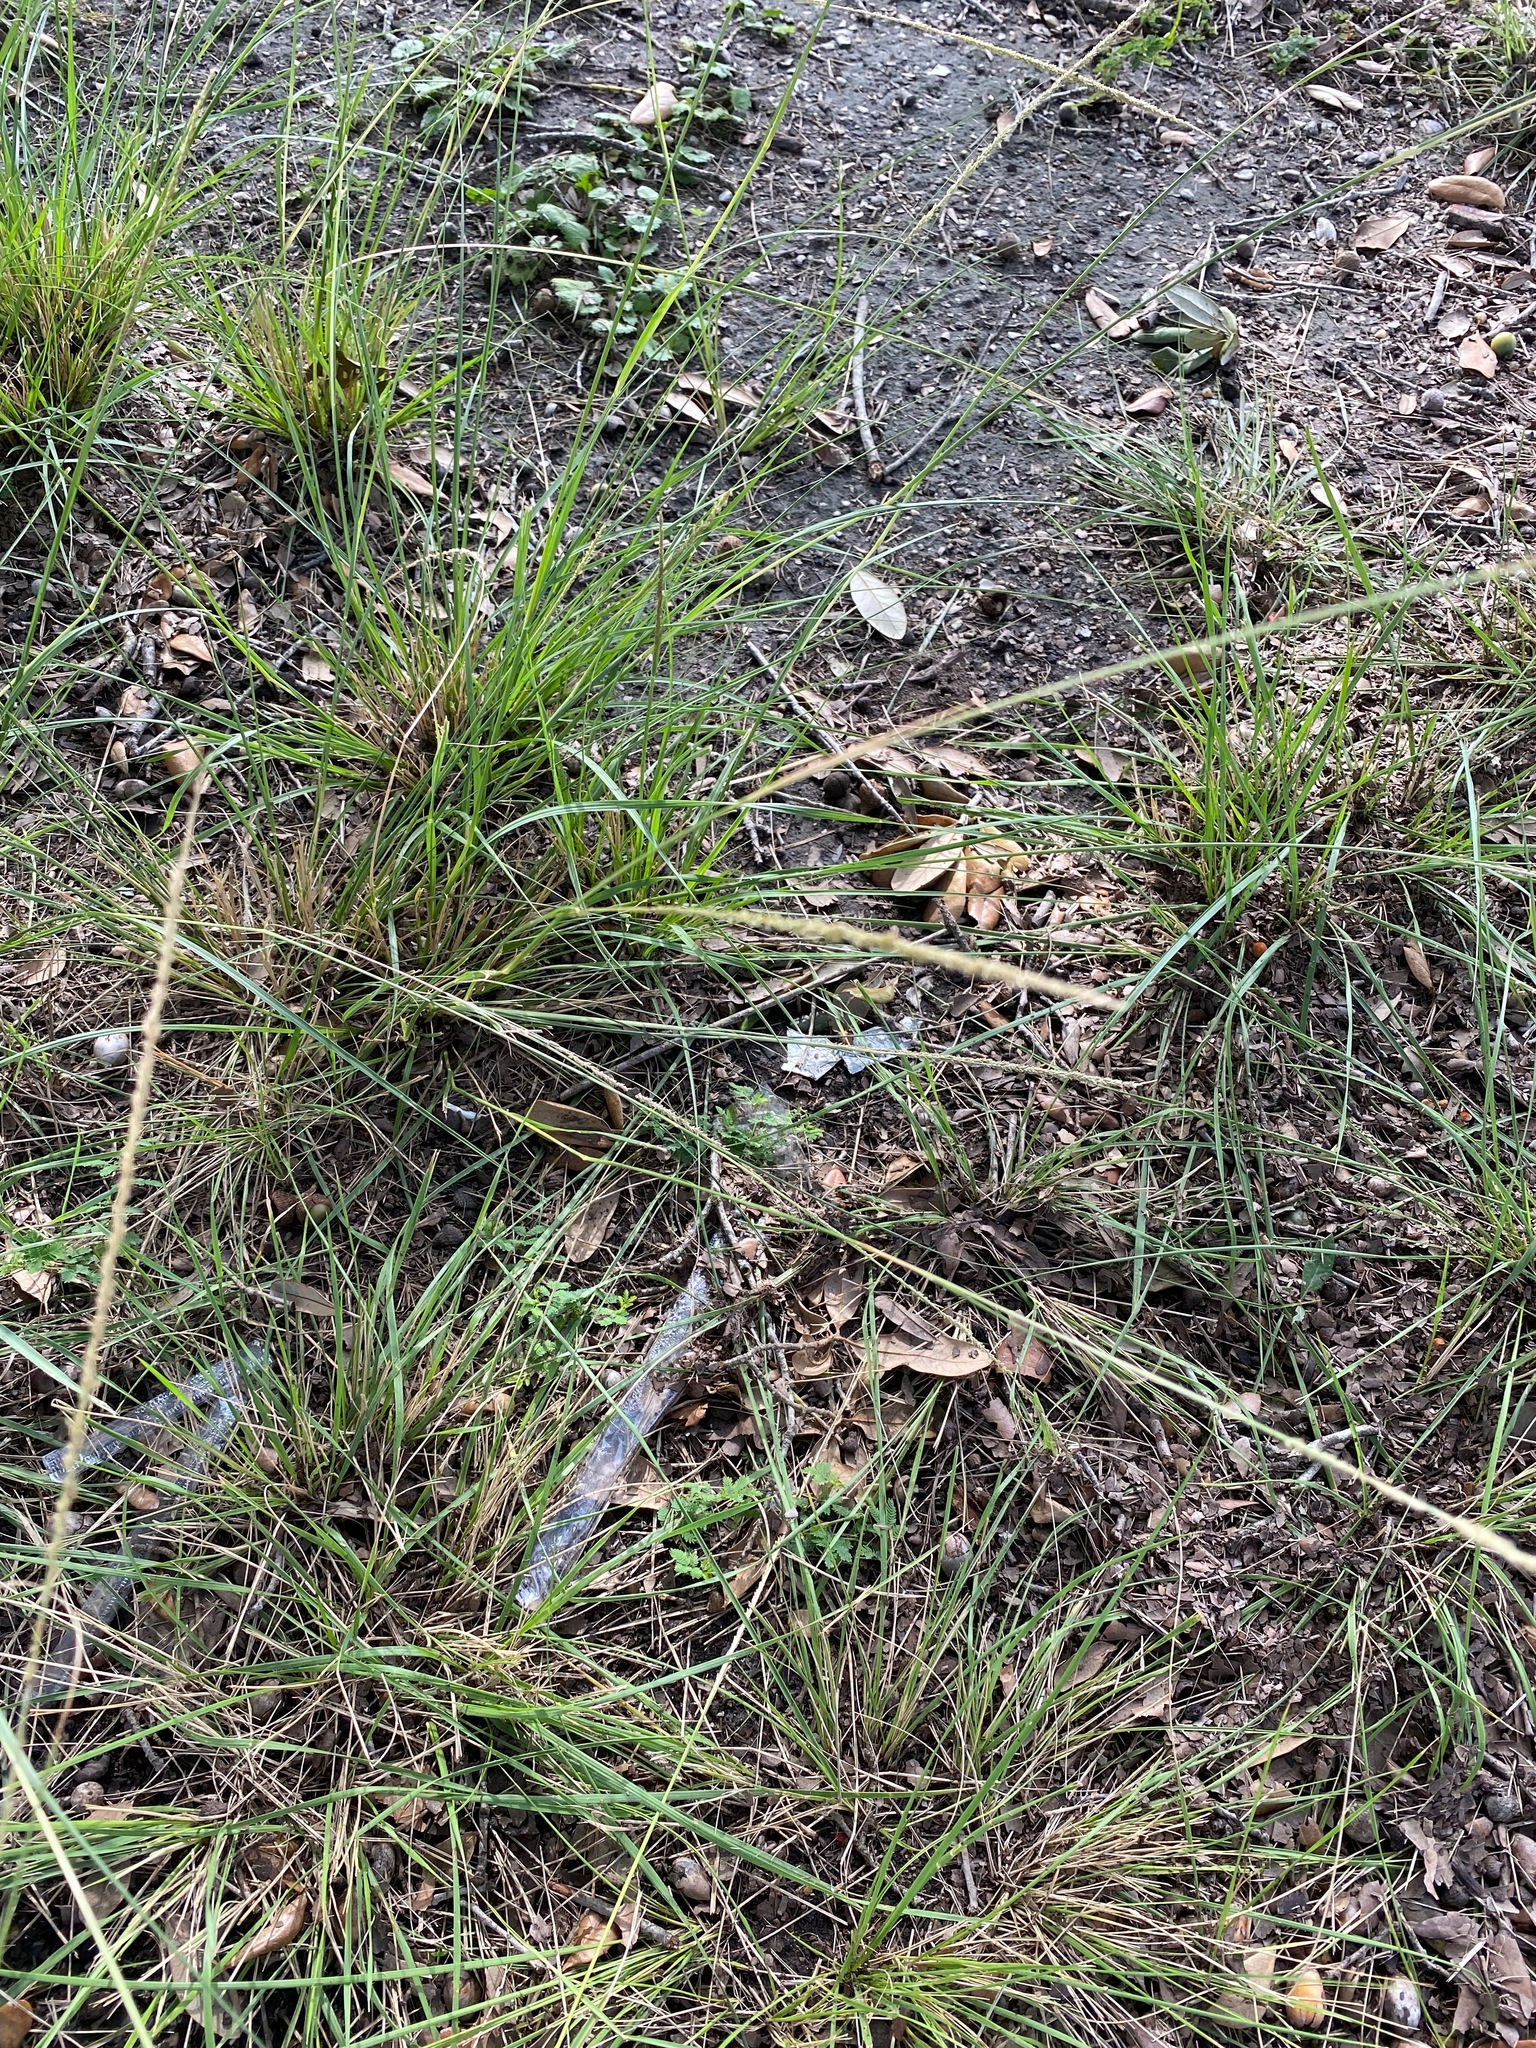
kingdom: Plantae
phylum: Tracheophyta
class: Liliopsida
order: Poales
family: Poaceae
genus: Sporobolus
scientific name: Sporobolus indicus
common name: Smut grass
